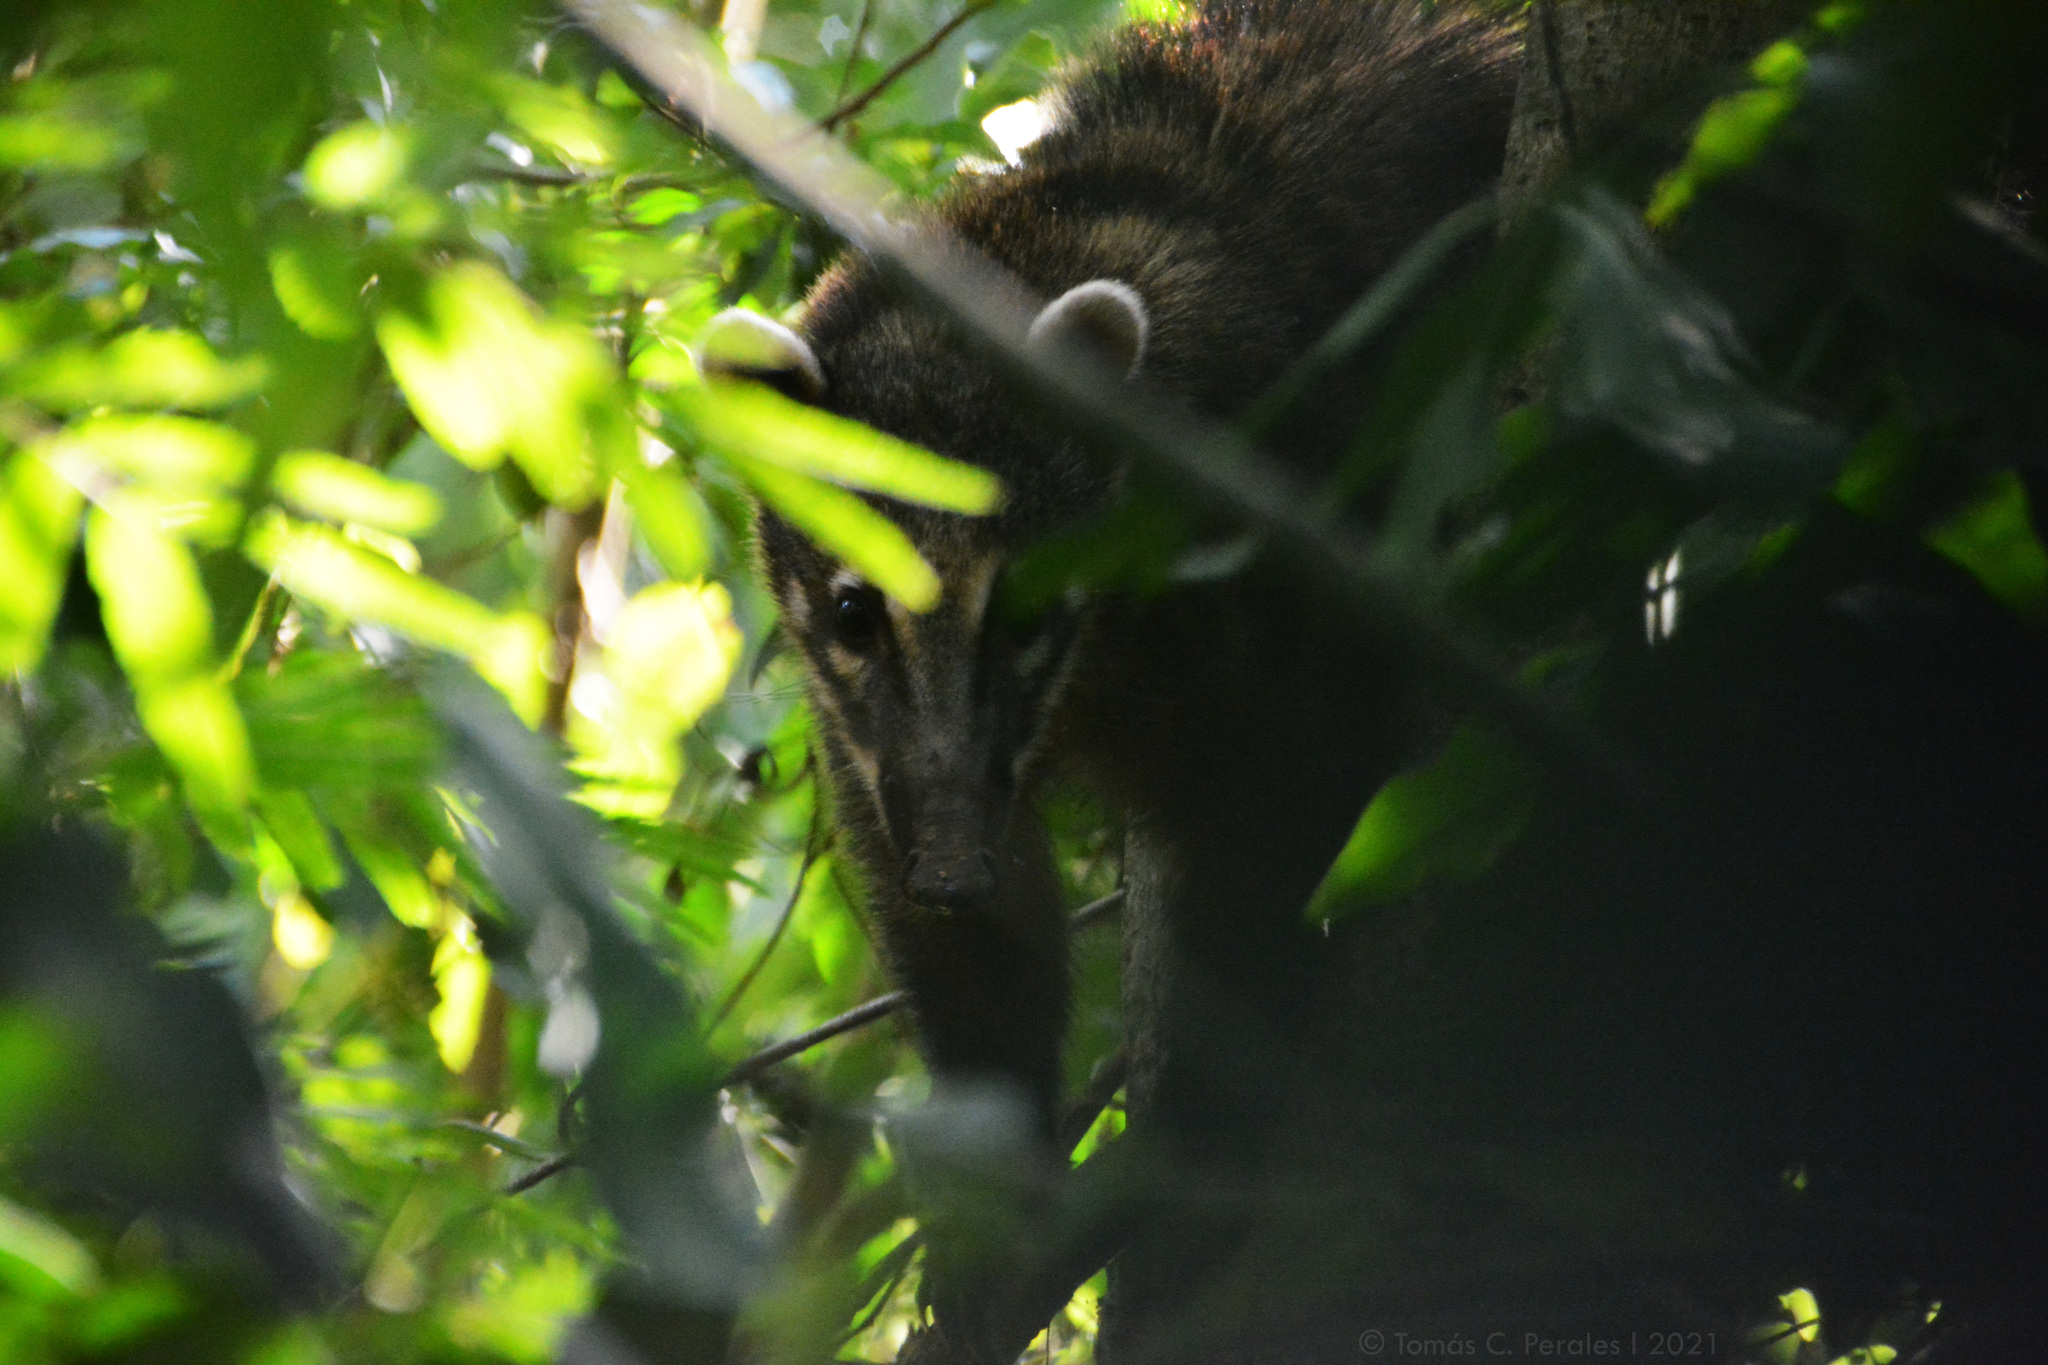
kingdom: Animalia
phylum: Chordata
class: Mammalia
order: Carnivora
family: Procyonidae
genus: Nasua
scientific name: Nasua nasua
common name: South american coati
